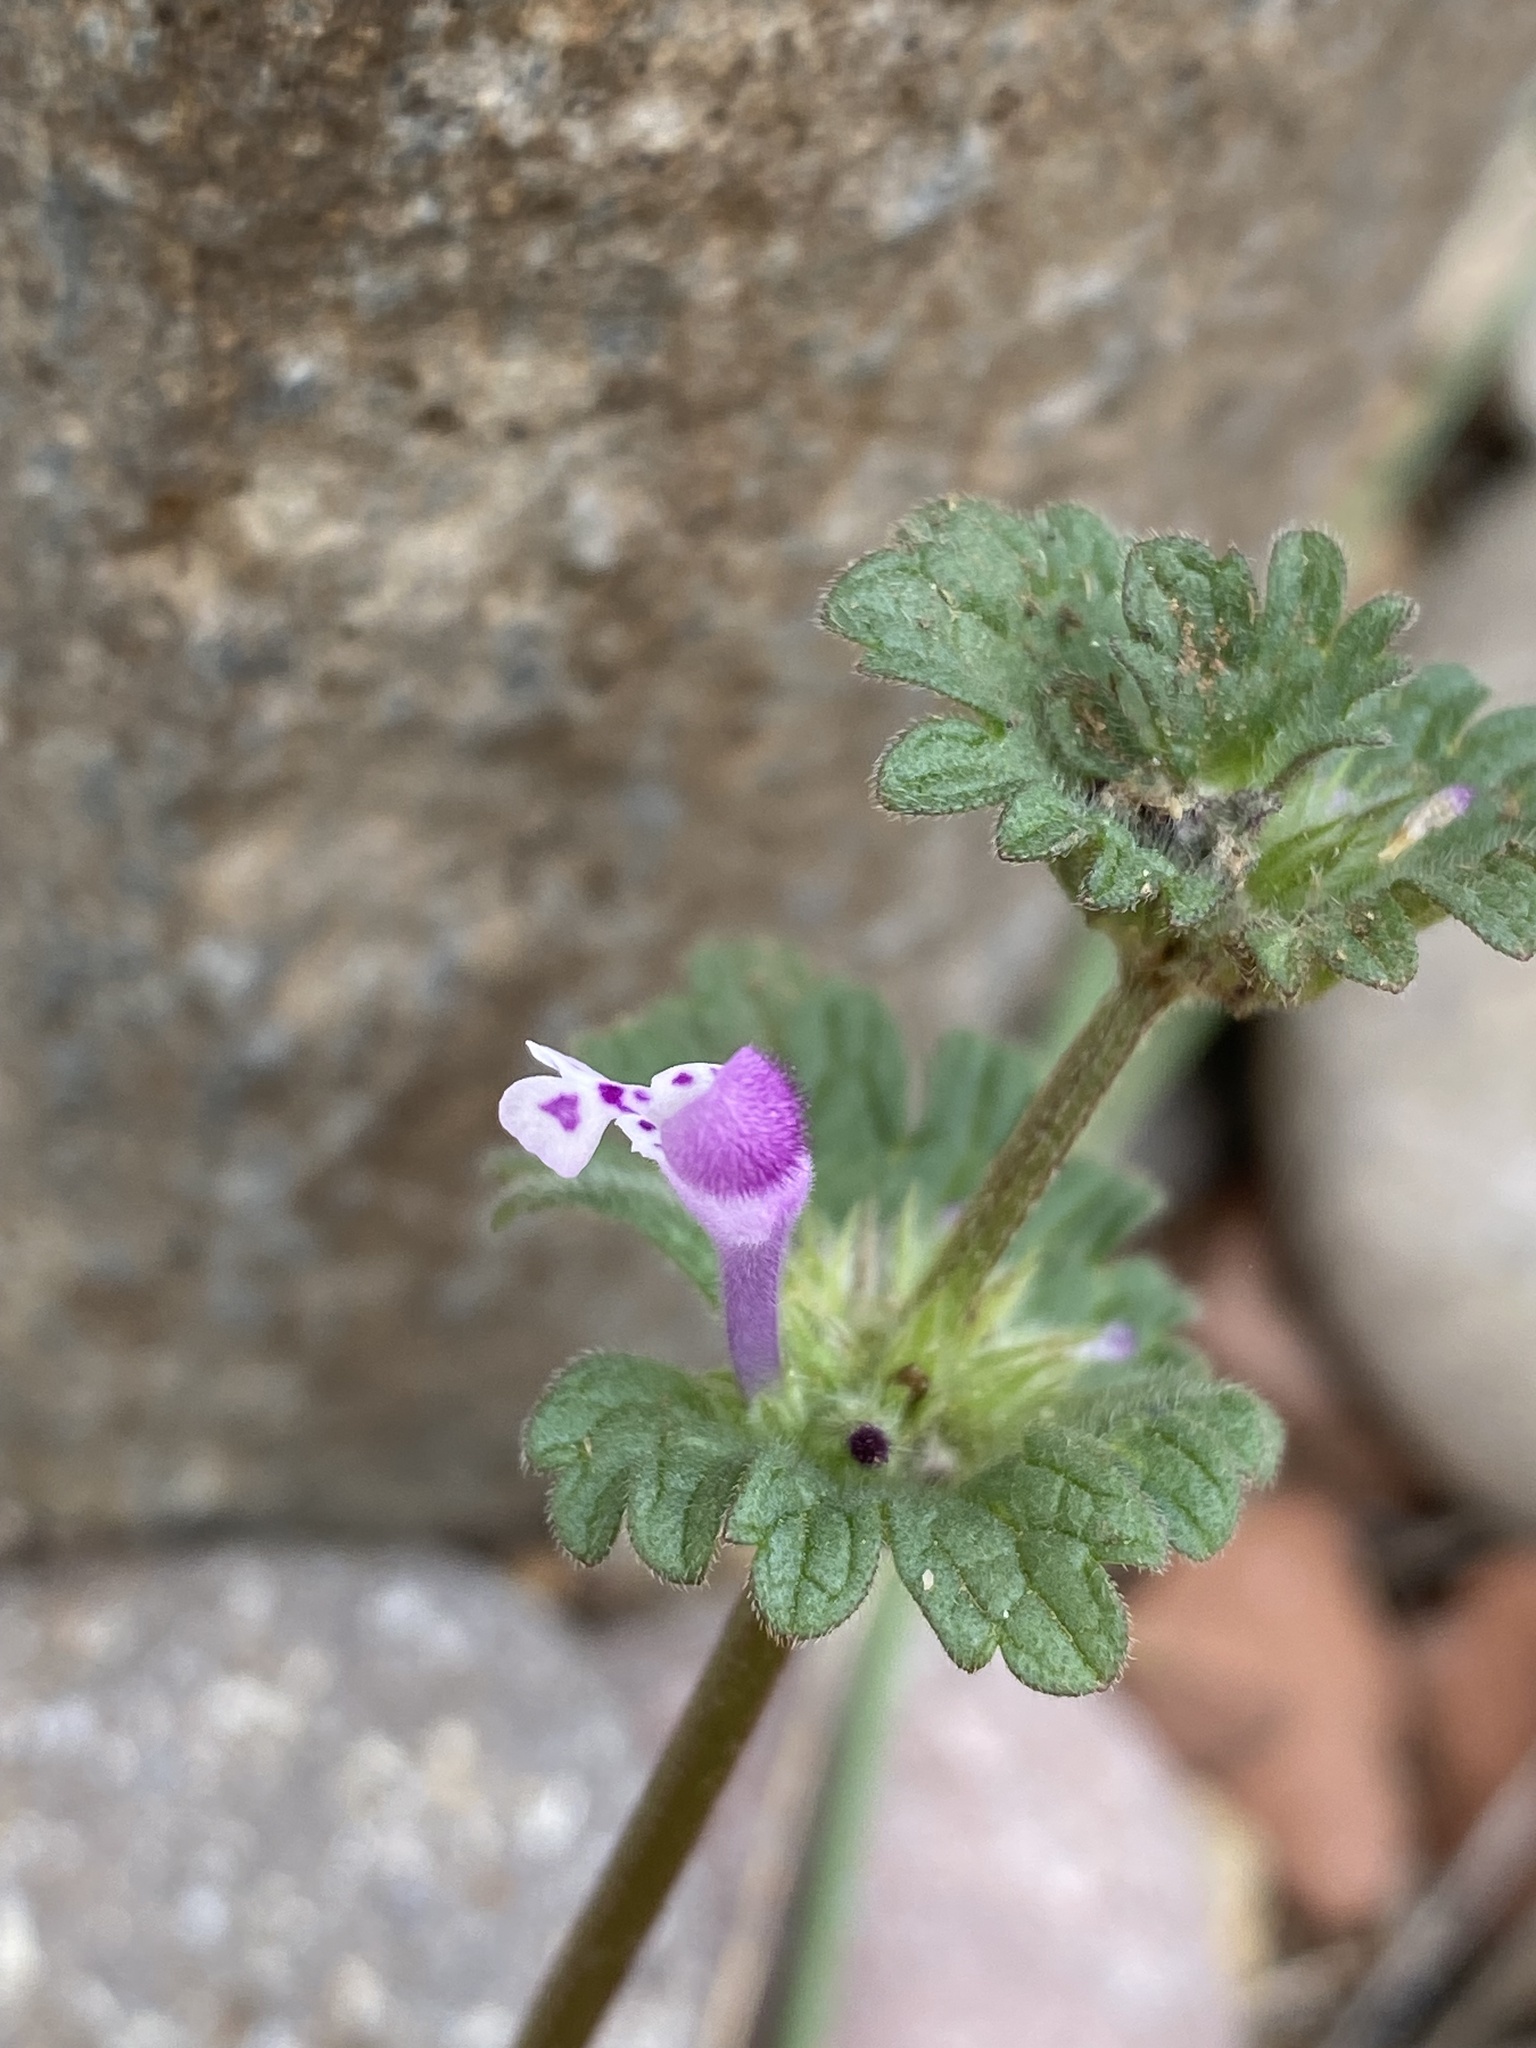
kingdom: Plantae
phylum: Tracheophyta
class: Magnoliopsida
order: Lamiales
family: Lamiaceae
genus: Lamium
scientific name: Lamium amplexicaule
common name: Henbit dead-nettle
